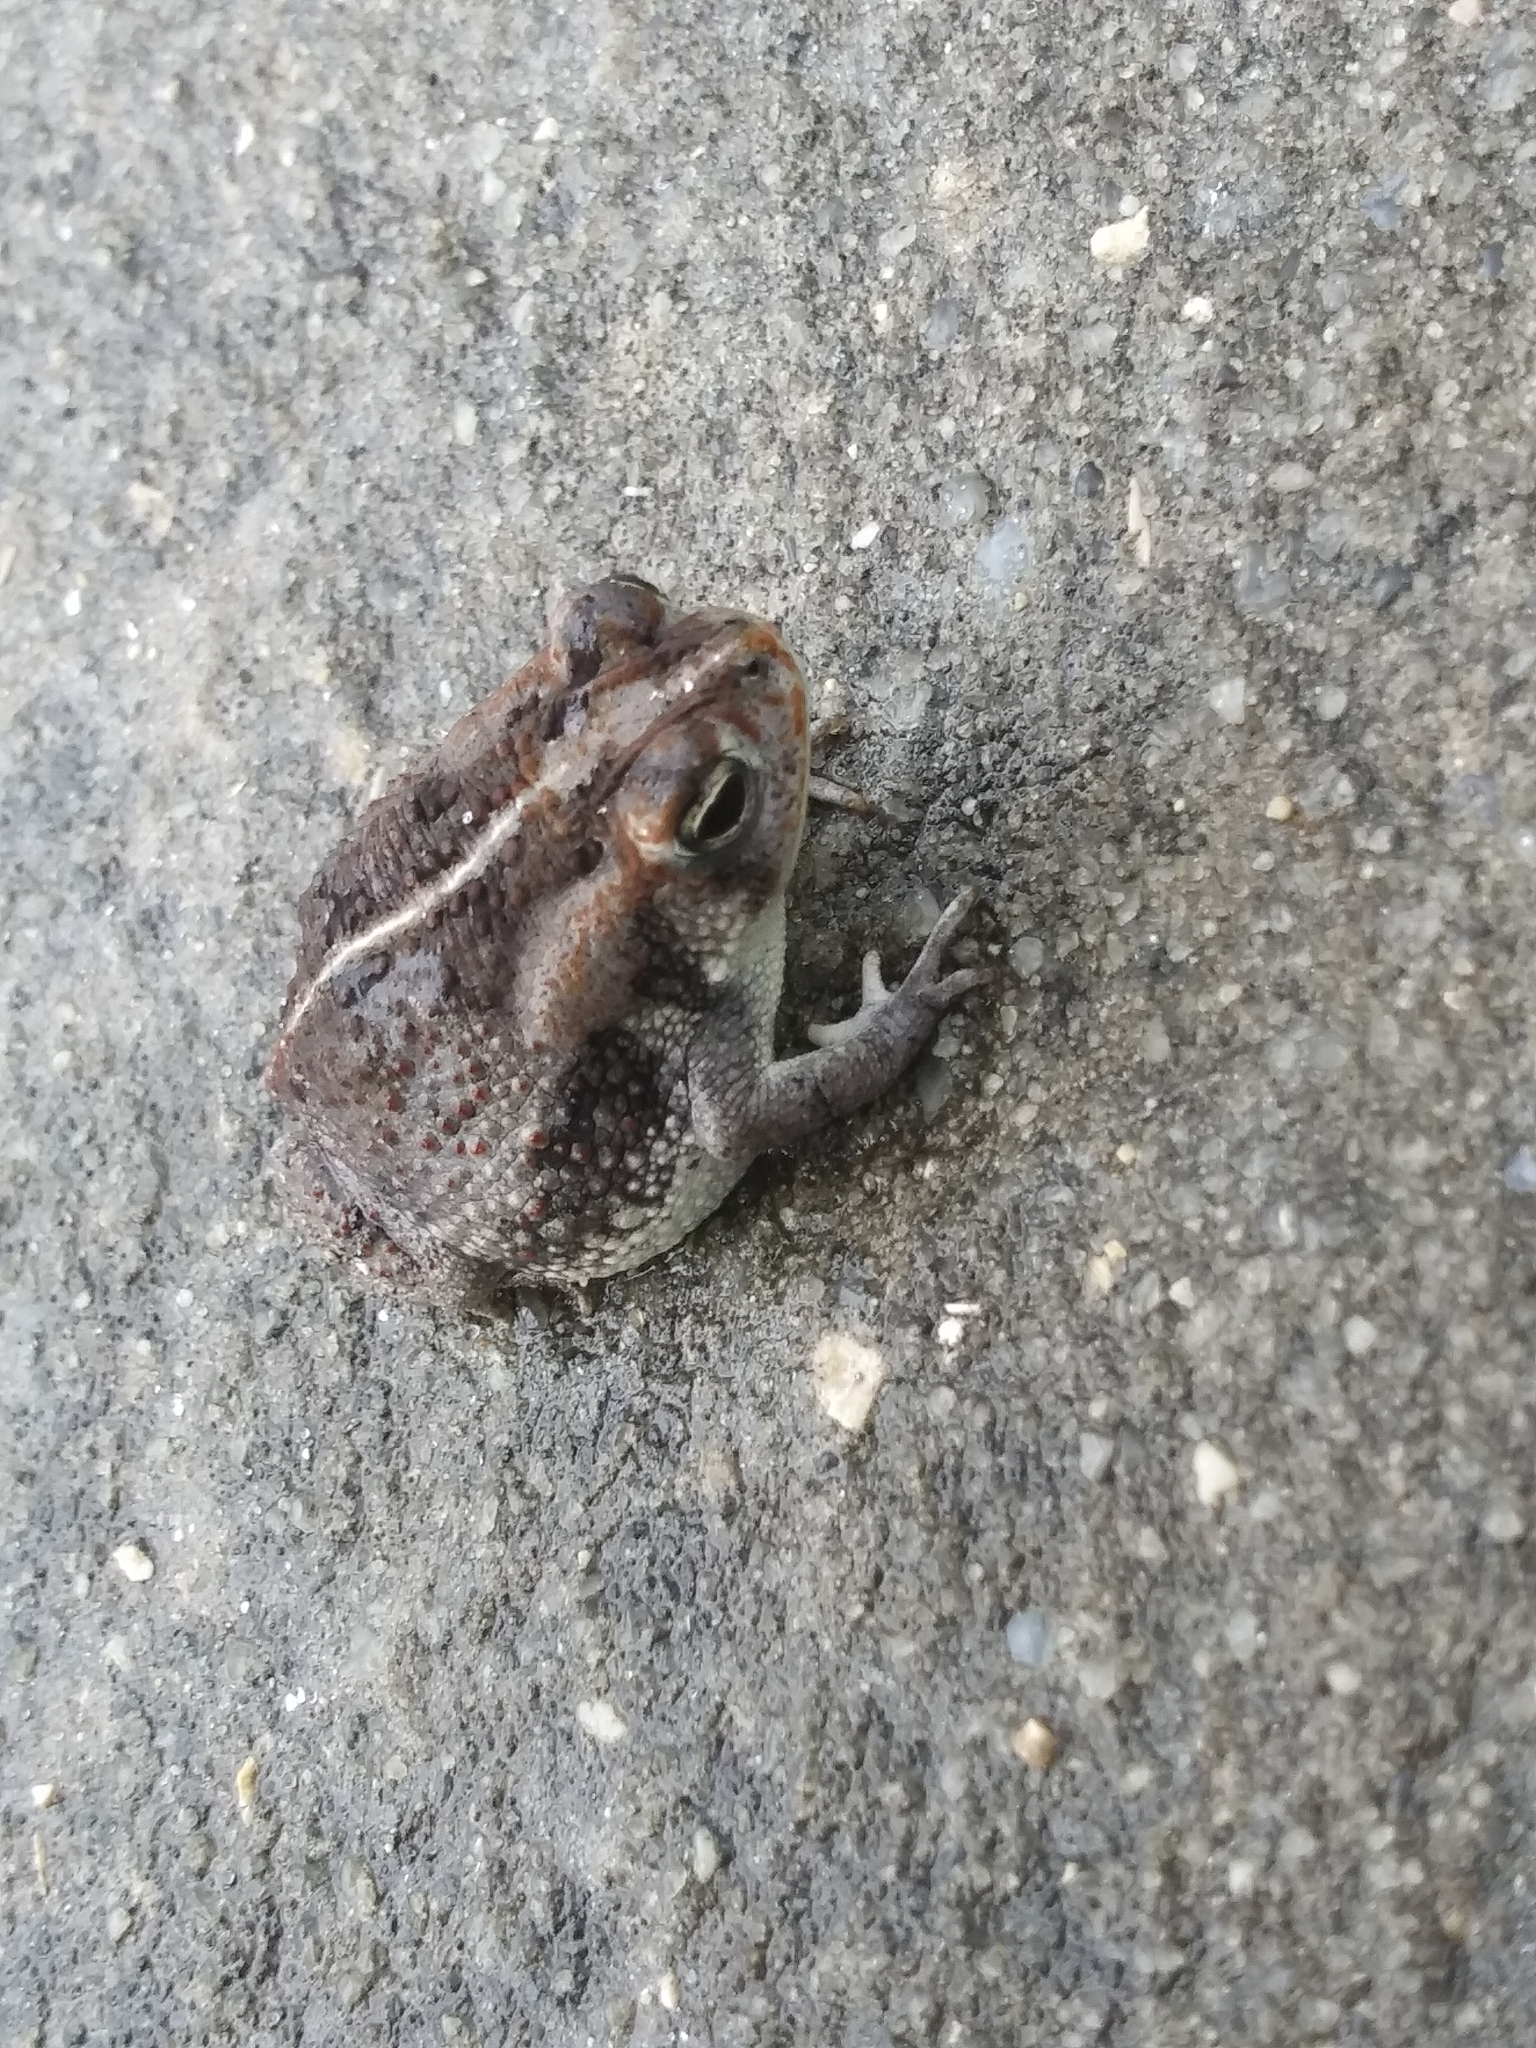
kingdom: Animalia
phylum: Chordata
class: Amphibia
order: Anura
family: Bufonidae
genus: Anaxyrus
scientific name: Anaxyrus quercicus
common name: Oak toad
